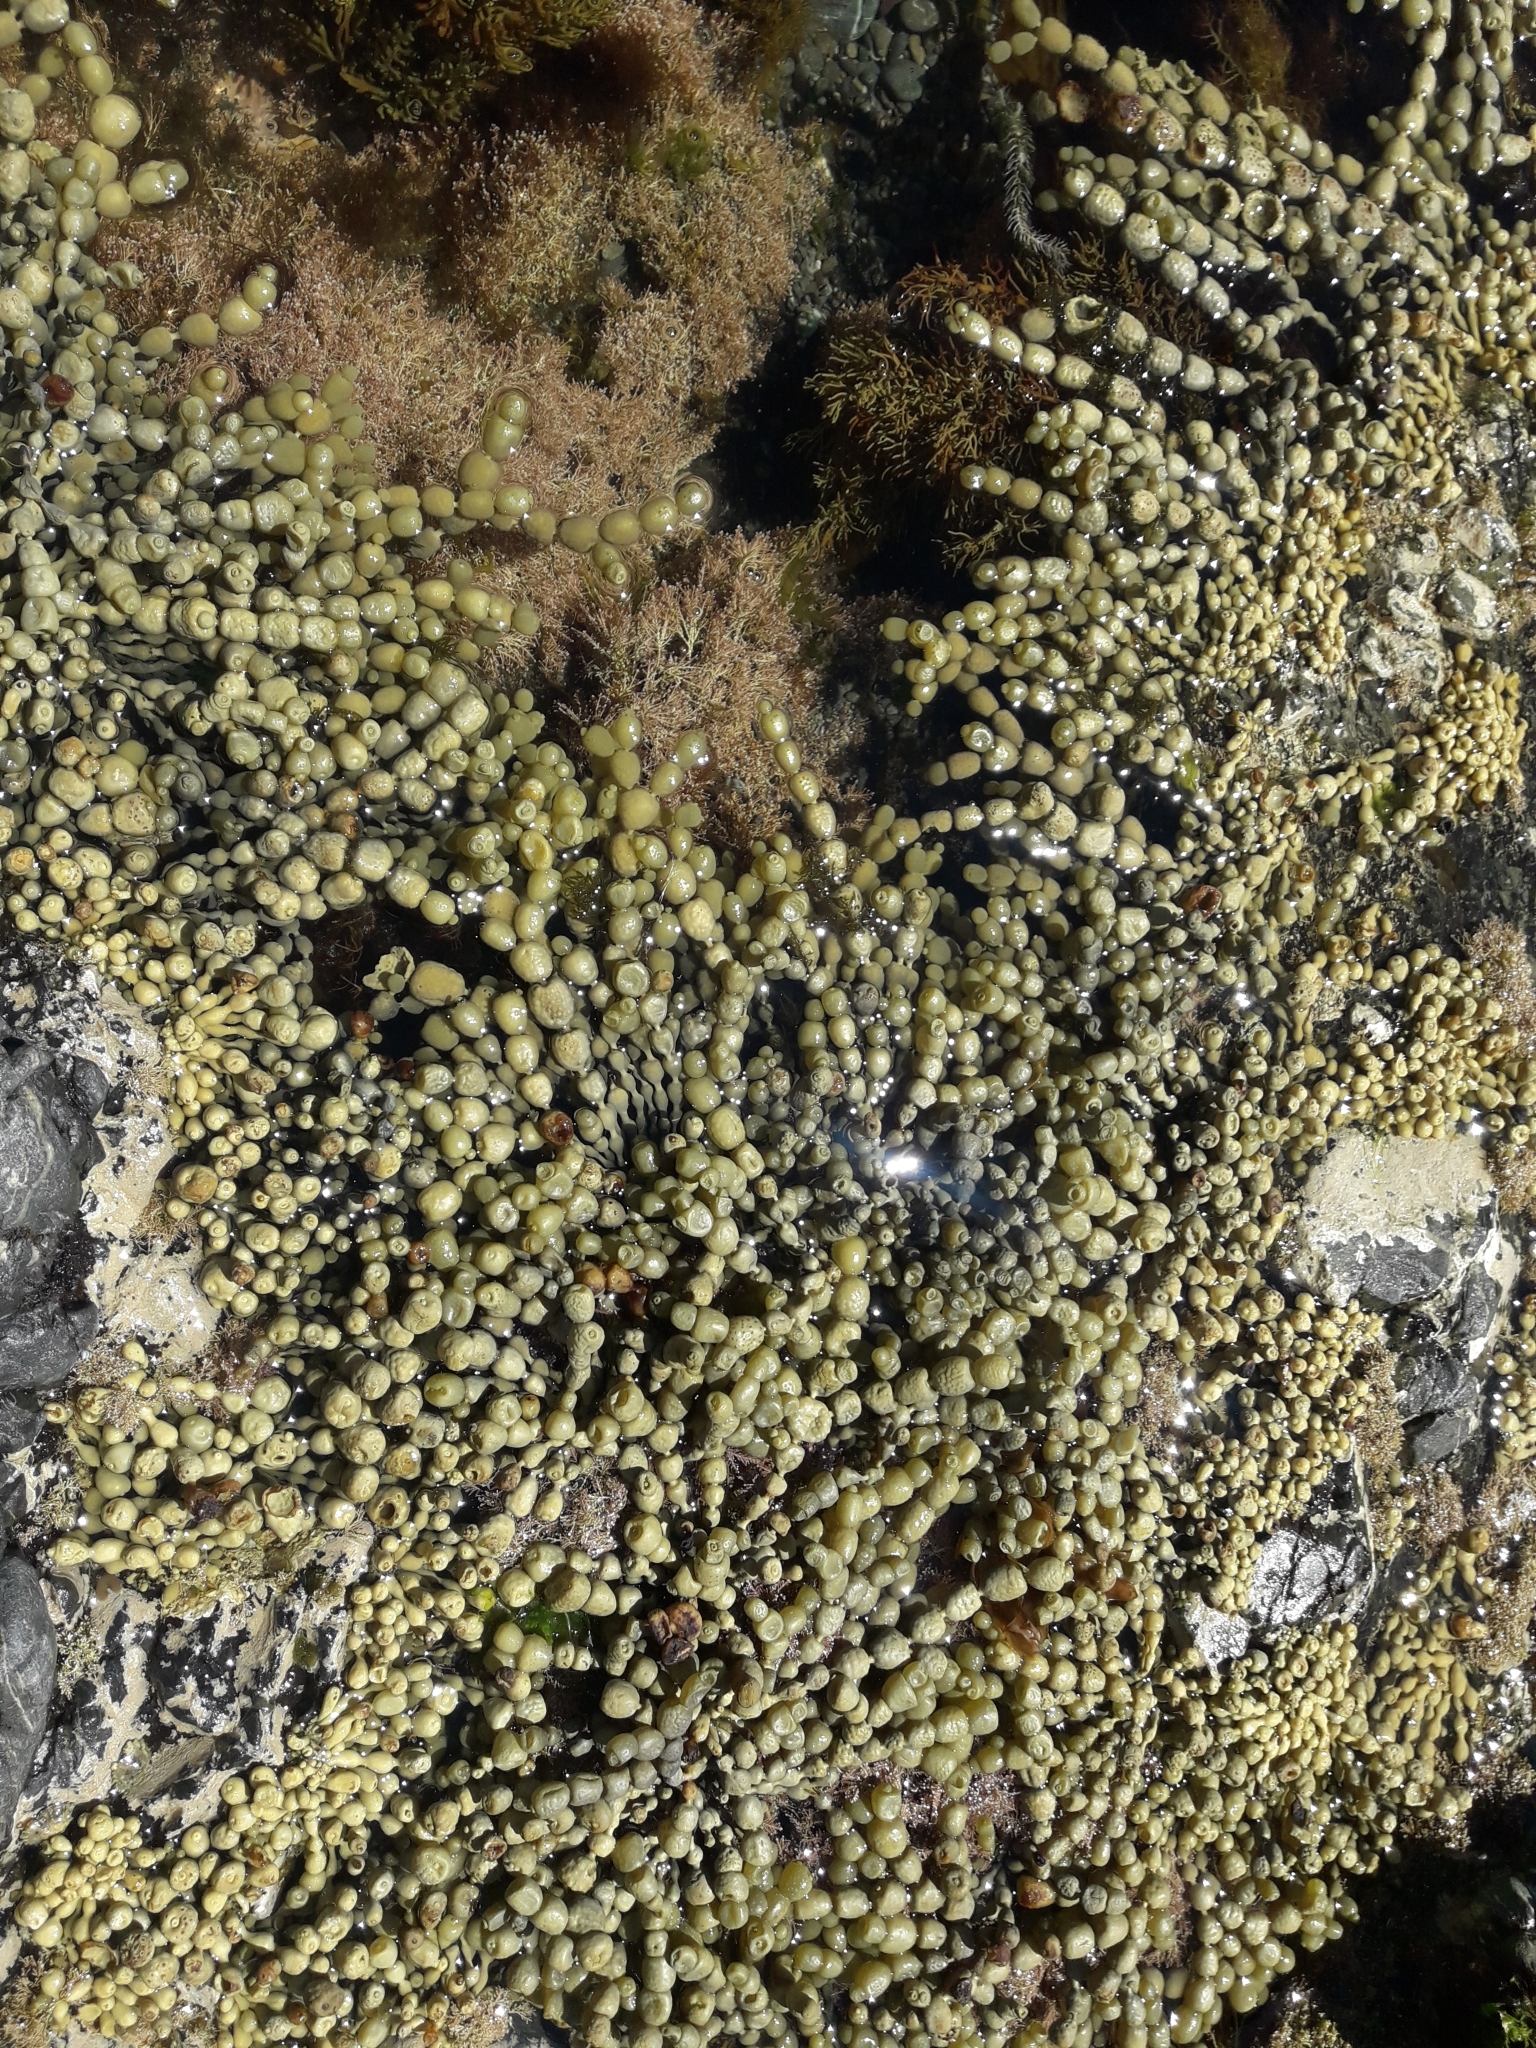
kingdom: Chromista
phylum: Ochrophyta
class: Phaeophyceae
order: Fucales
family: Hormosiraceae
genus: Hormosira
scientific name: Hormosira banksii
